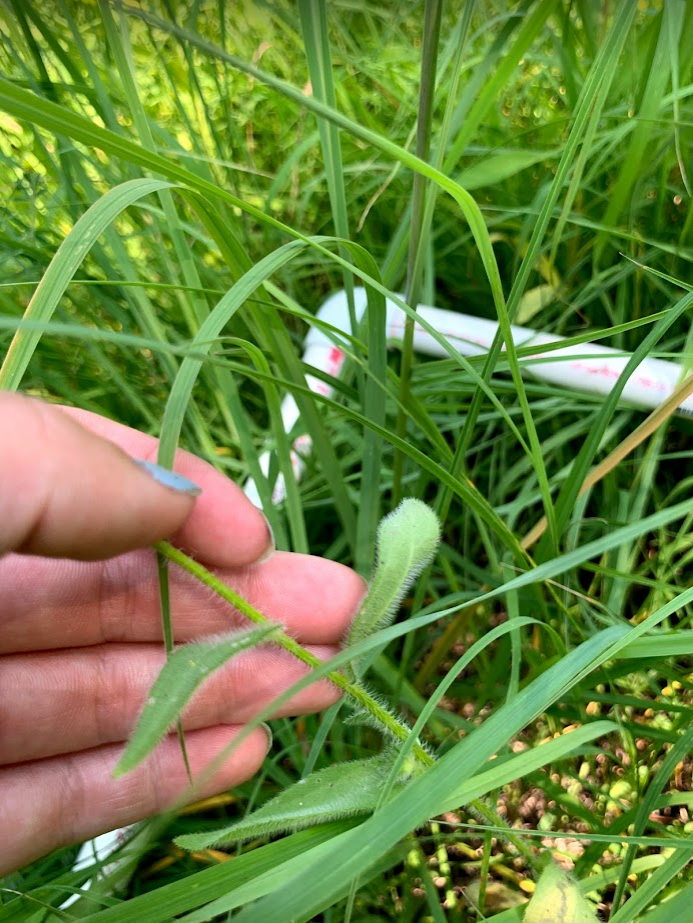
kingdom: Plantae
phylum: Tracheophyta
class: Magnoliopsida
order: Asterales
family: Asteraceae
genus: Rudbeckia
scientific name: Rudbeckia hirta
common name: Black-eyed-susan
